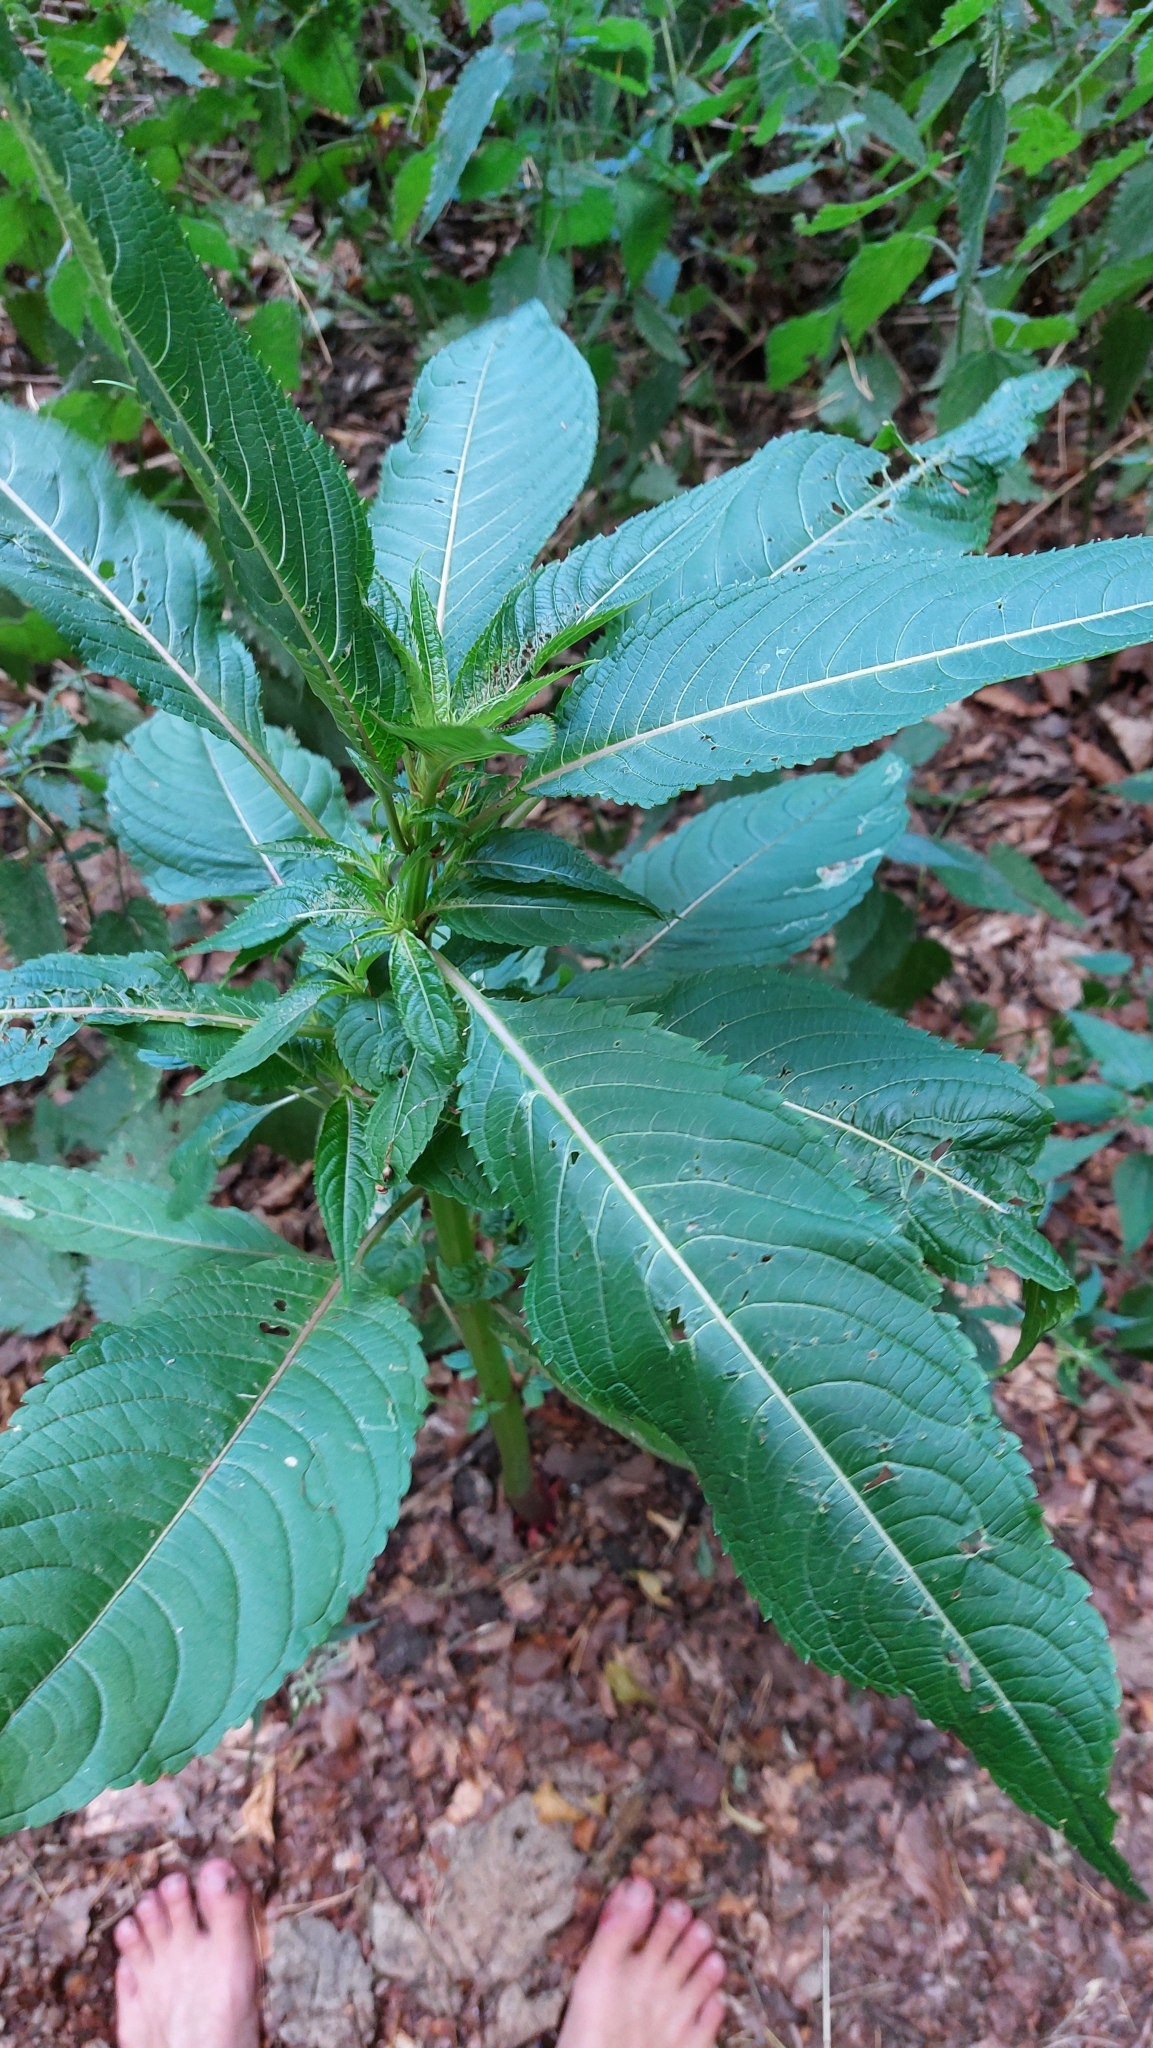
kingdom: Plantae
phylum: Tracheophyta
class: Magnoliopsida
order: Ericales
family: Balsaminaceae
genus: Impatiens
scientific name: Impatiens glandulifera
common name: Himalayan balsam
